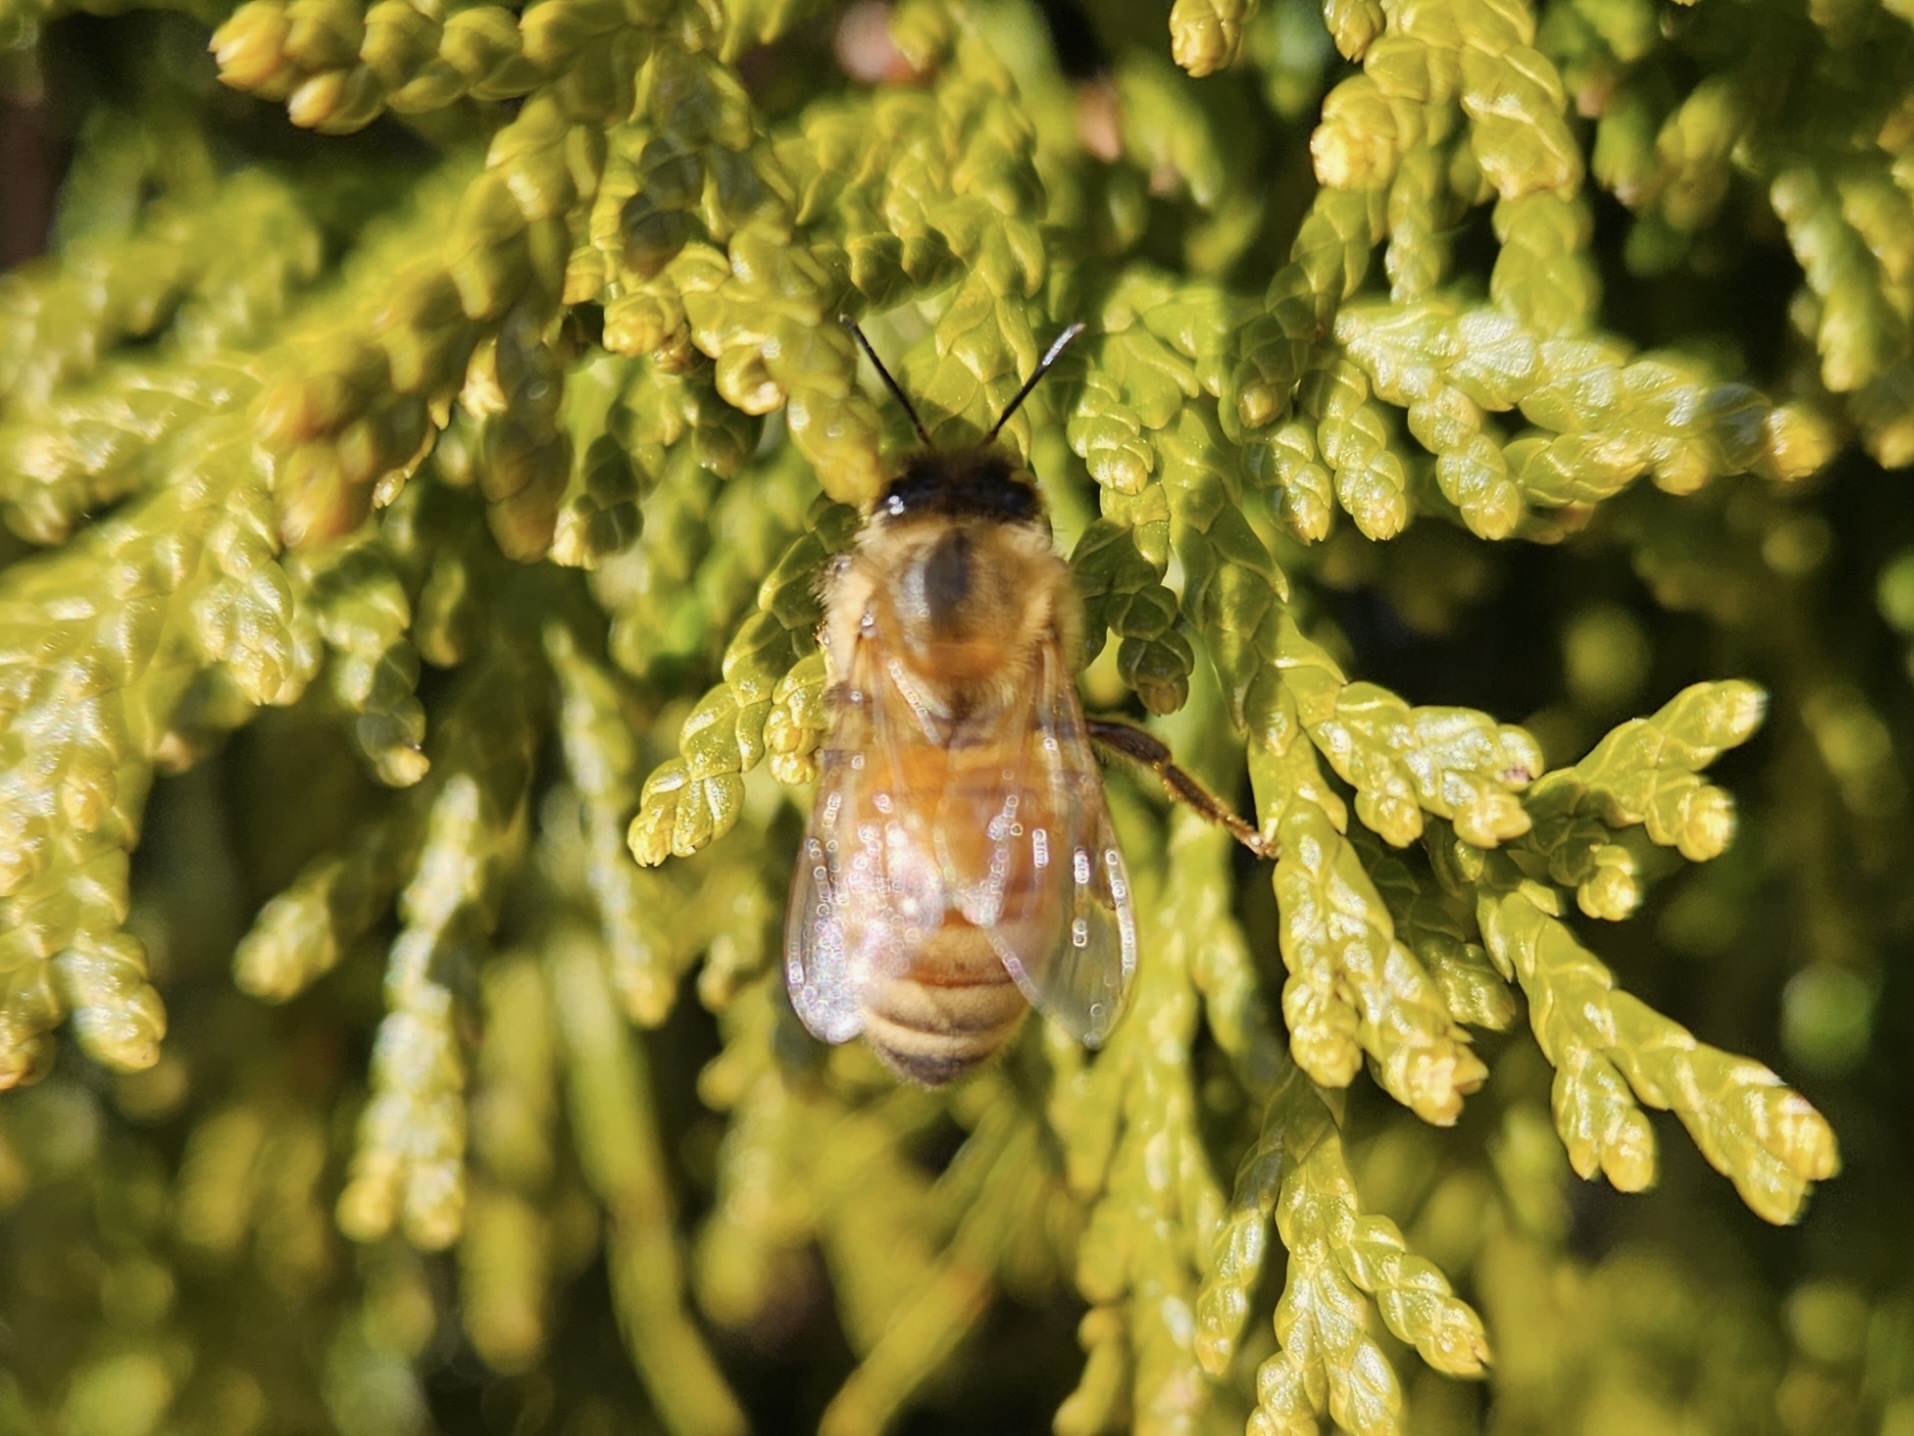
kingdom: Animalia
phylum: Arthropoda
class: Insecta
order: Hymenoptera
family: Apidae
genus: Apis
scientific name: Apis mellifera
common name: Honey bee
